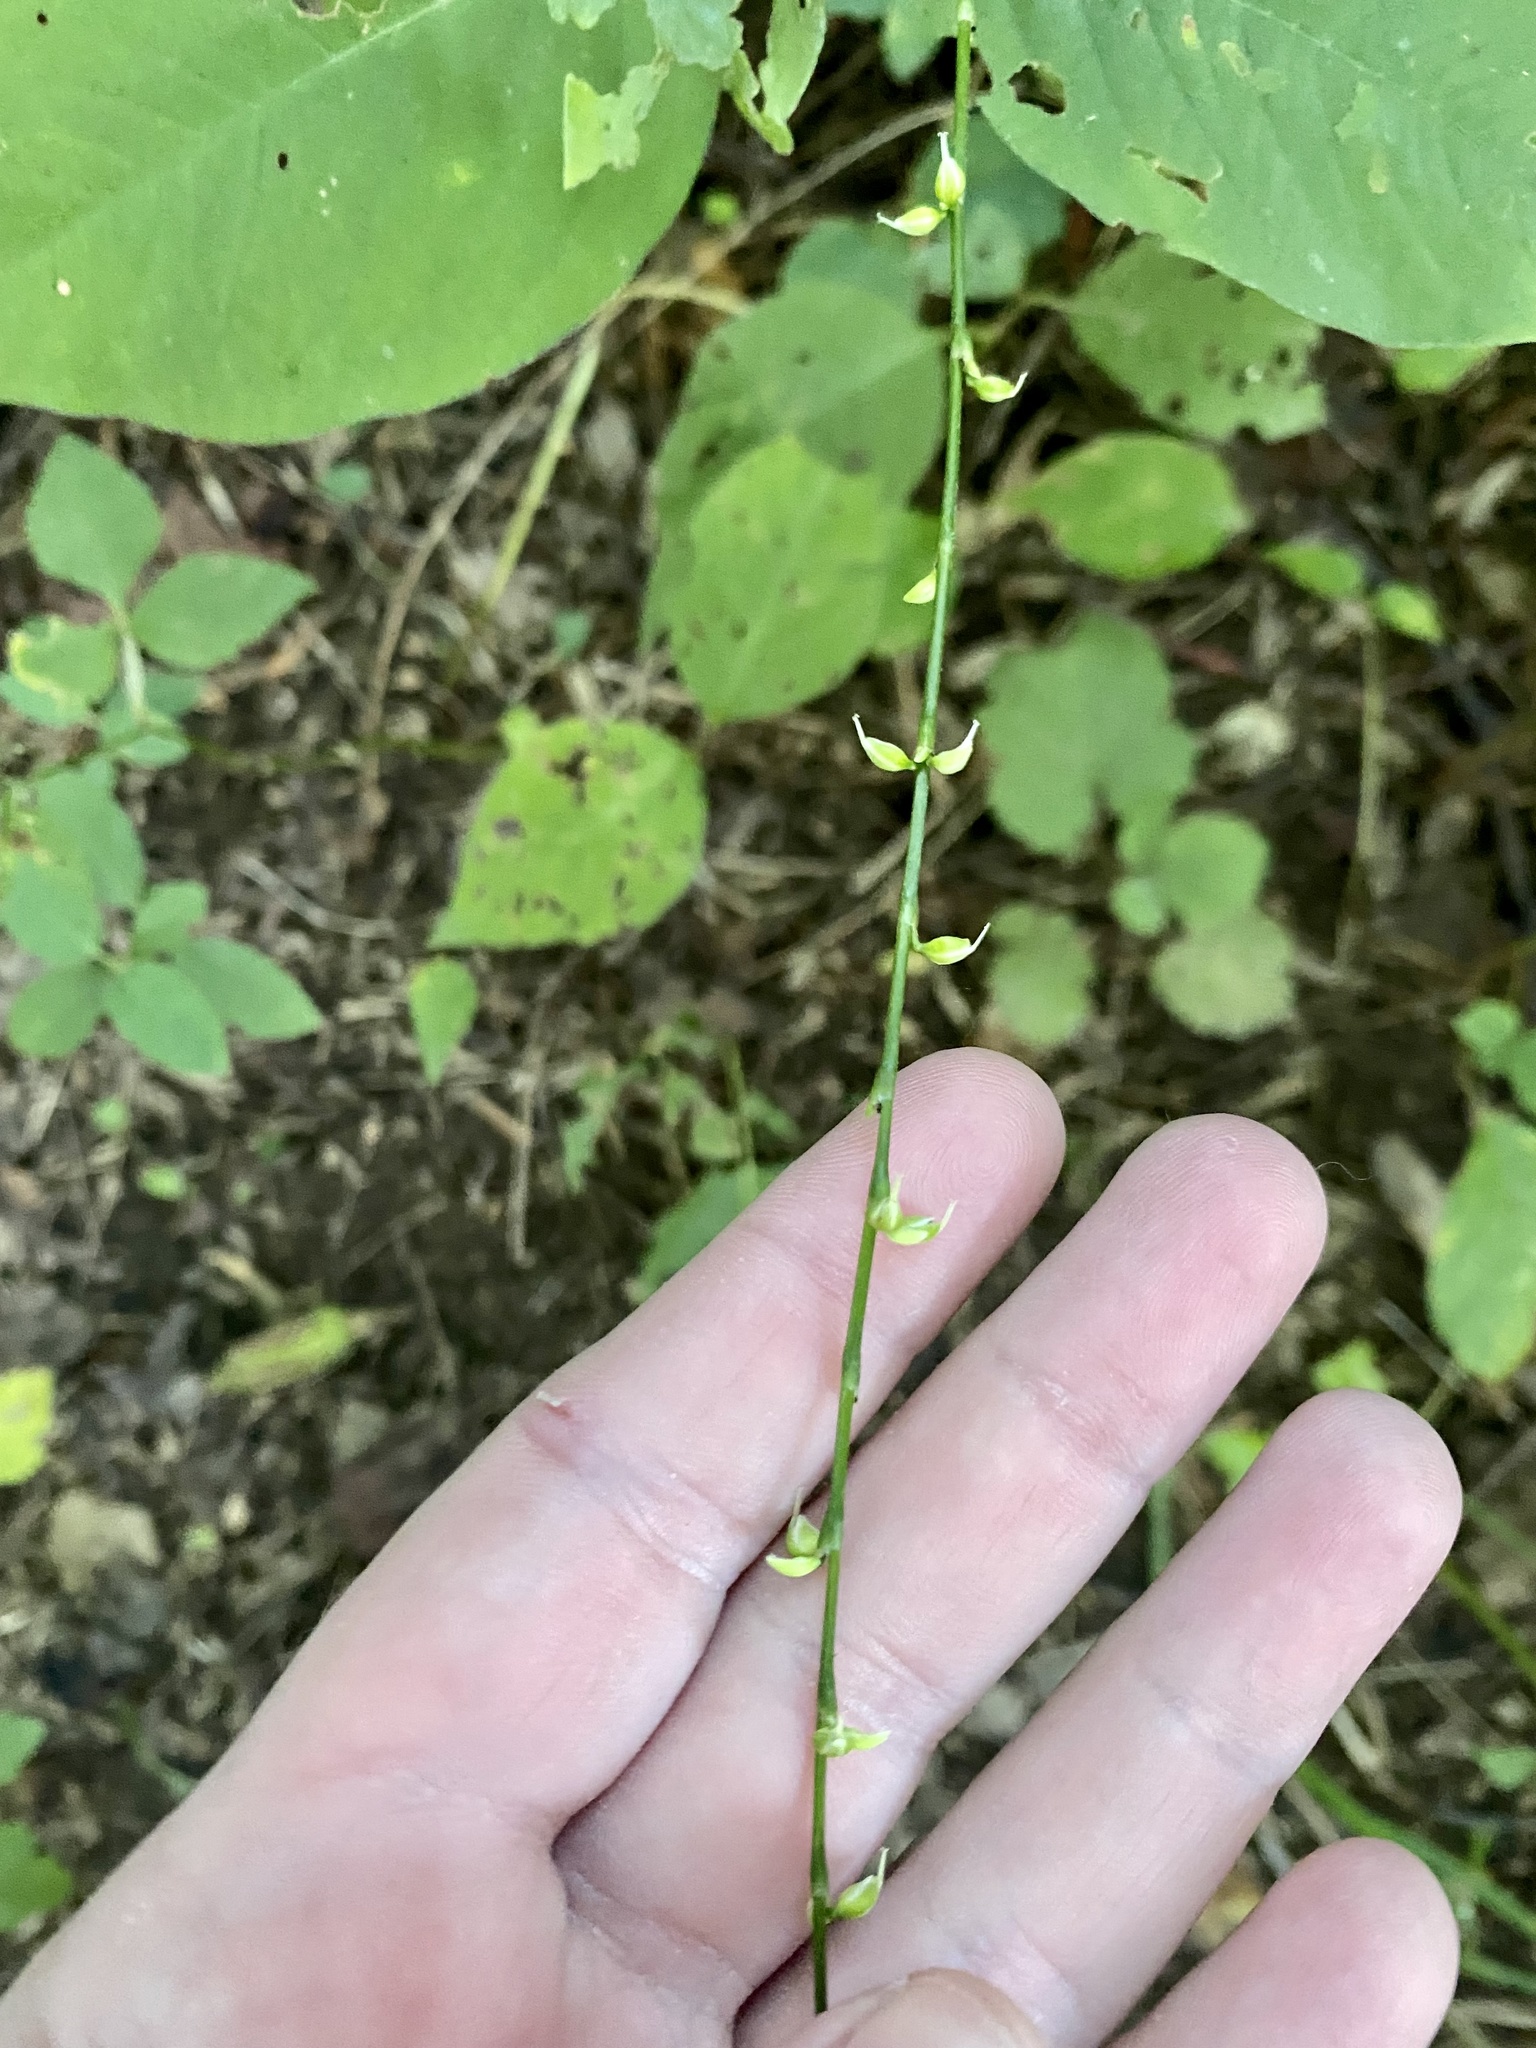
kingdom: Plantae
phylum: Tracheophyta
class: Magnoliopsida
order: Caryophyllales
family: Polygonaceae
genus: Persicaria
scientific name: Persicaria virginiana
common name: Jumpseed
